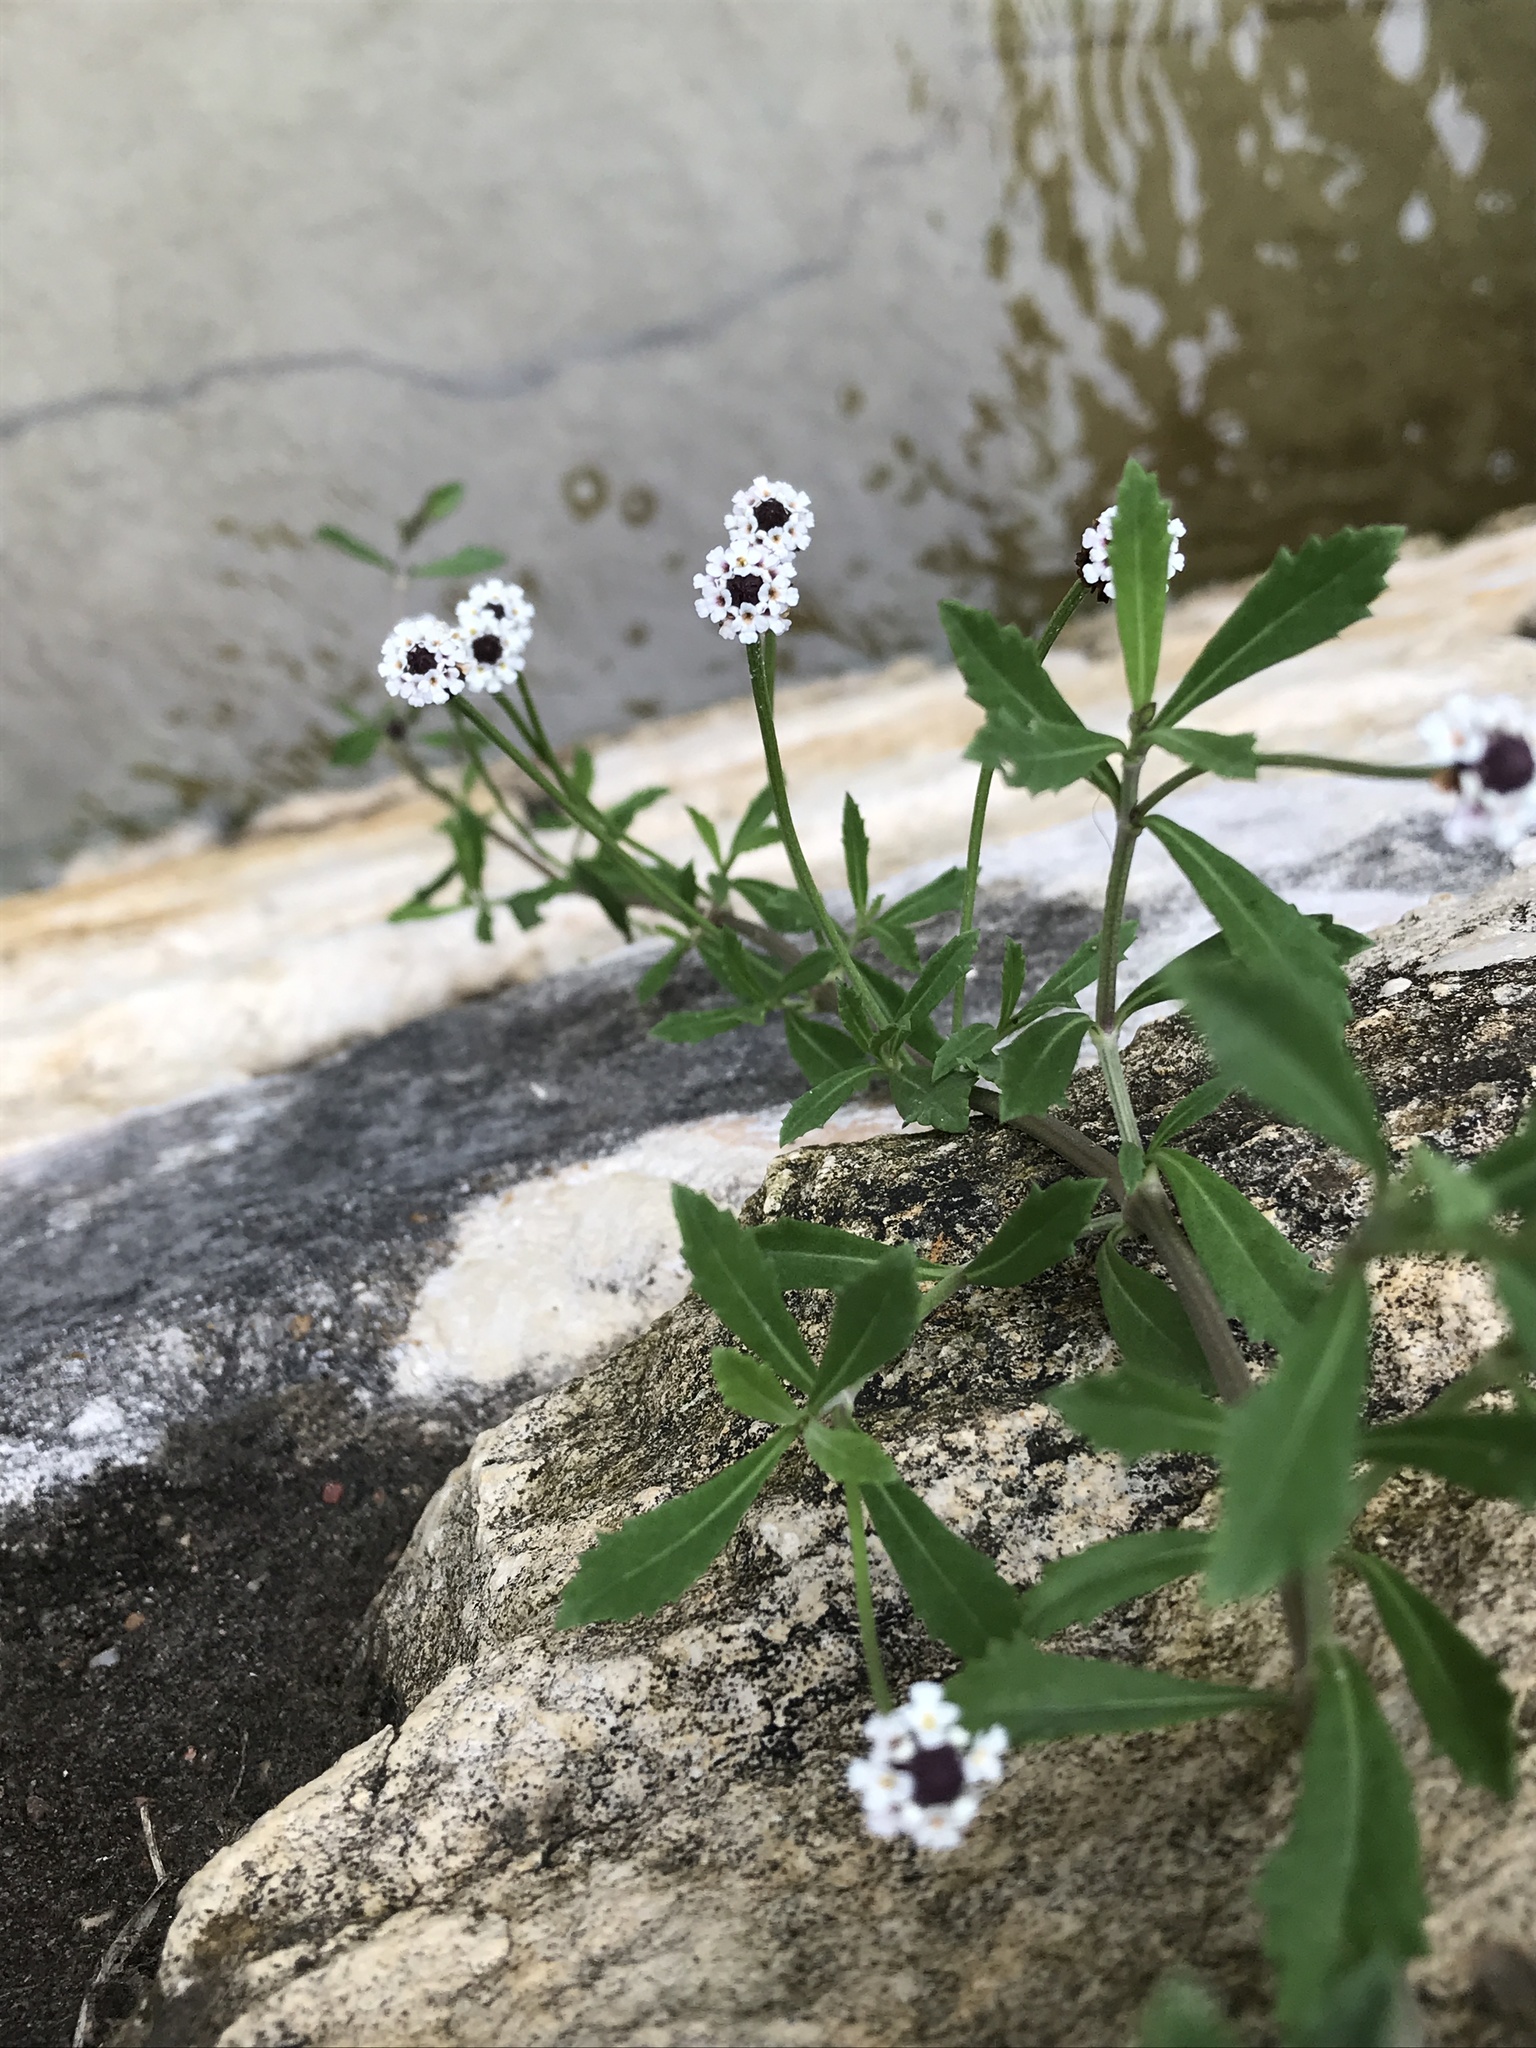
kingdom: Plantae
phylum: Tracheophyta
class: Magnoliopsida
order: Lamiales
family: Verbenaceae
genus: Phyla
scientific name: Phyla nodiflora
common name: Frogfruit
